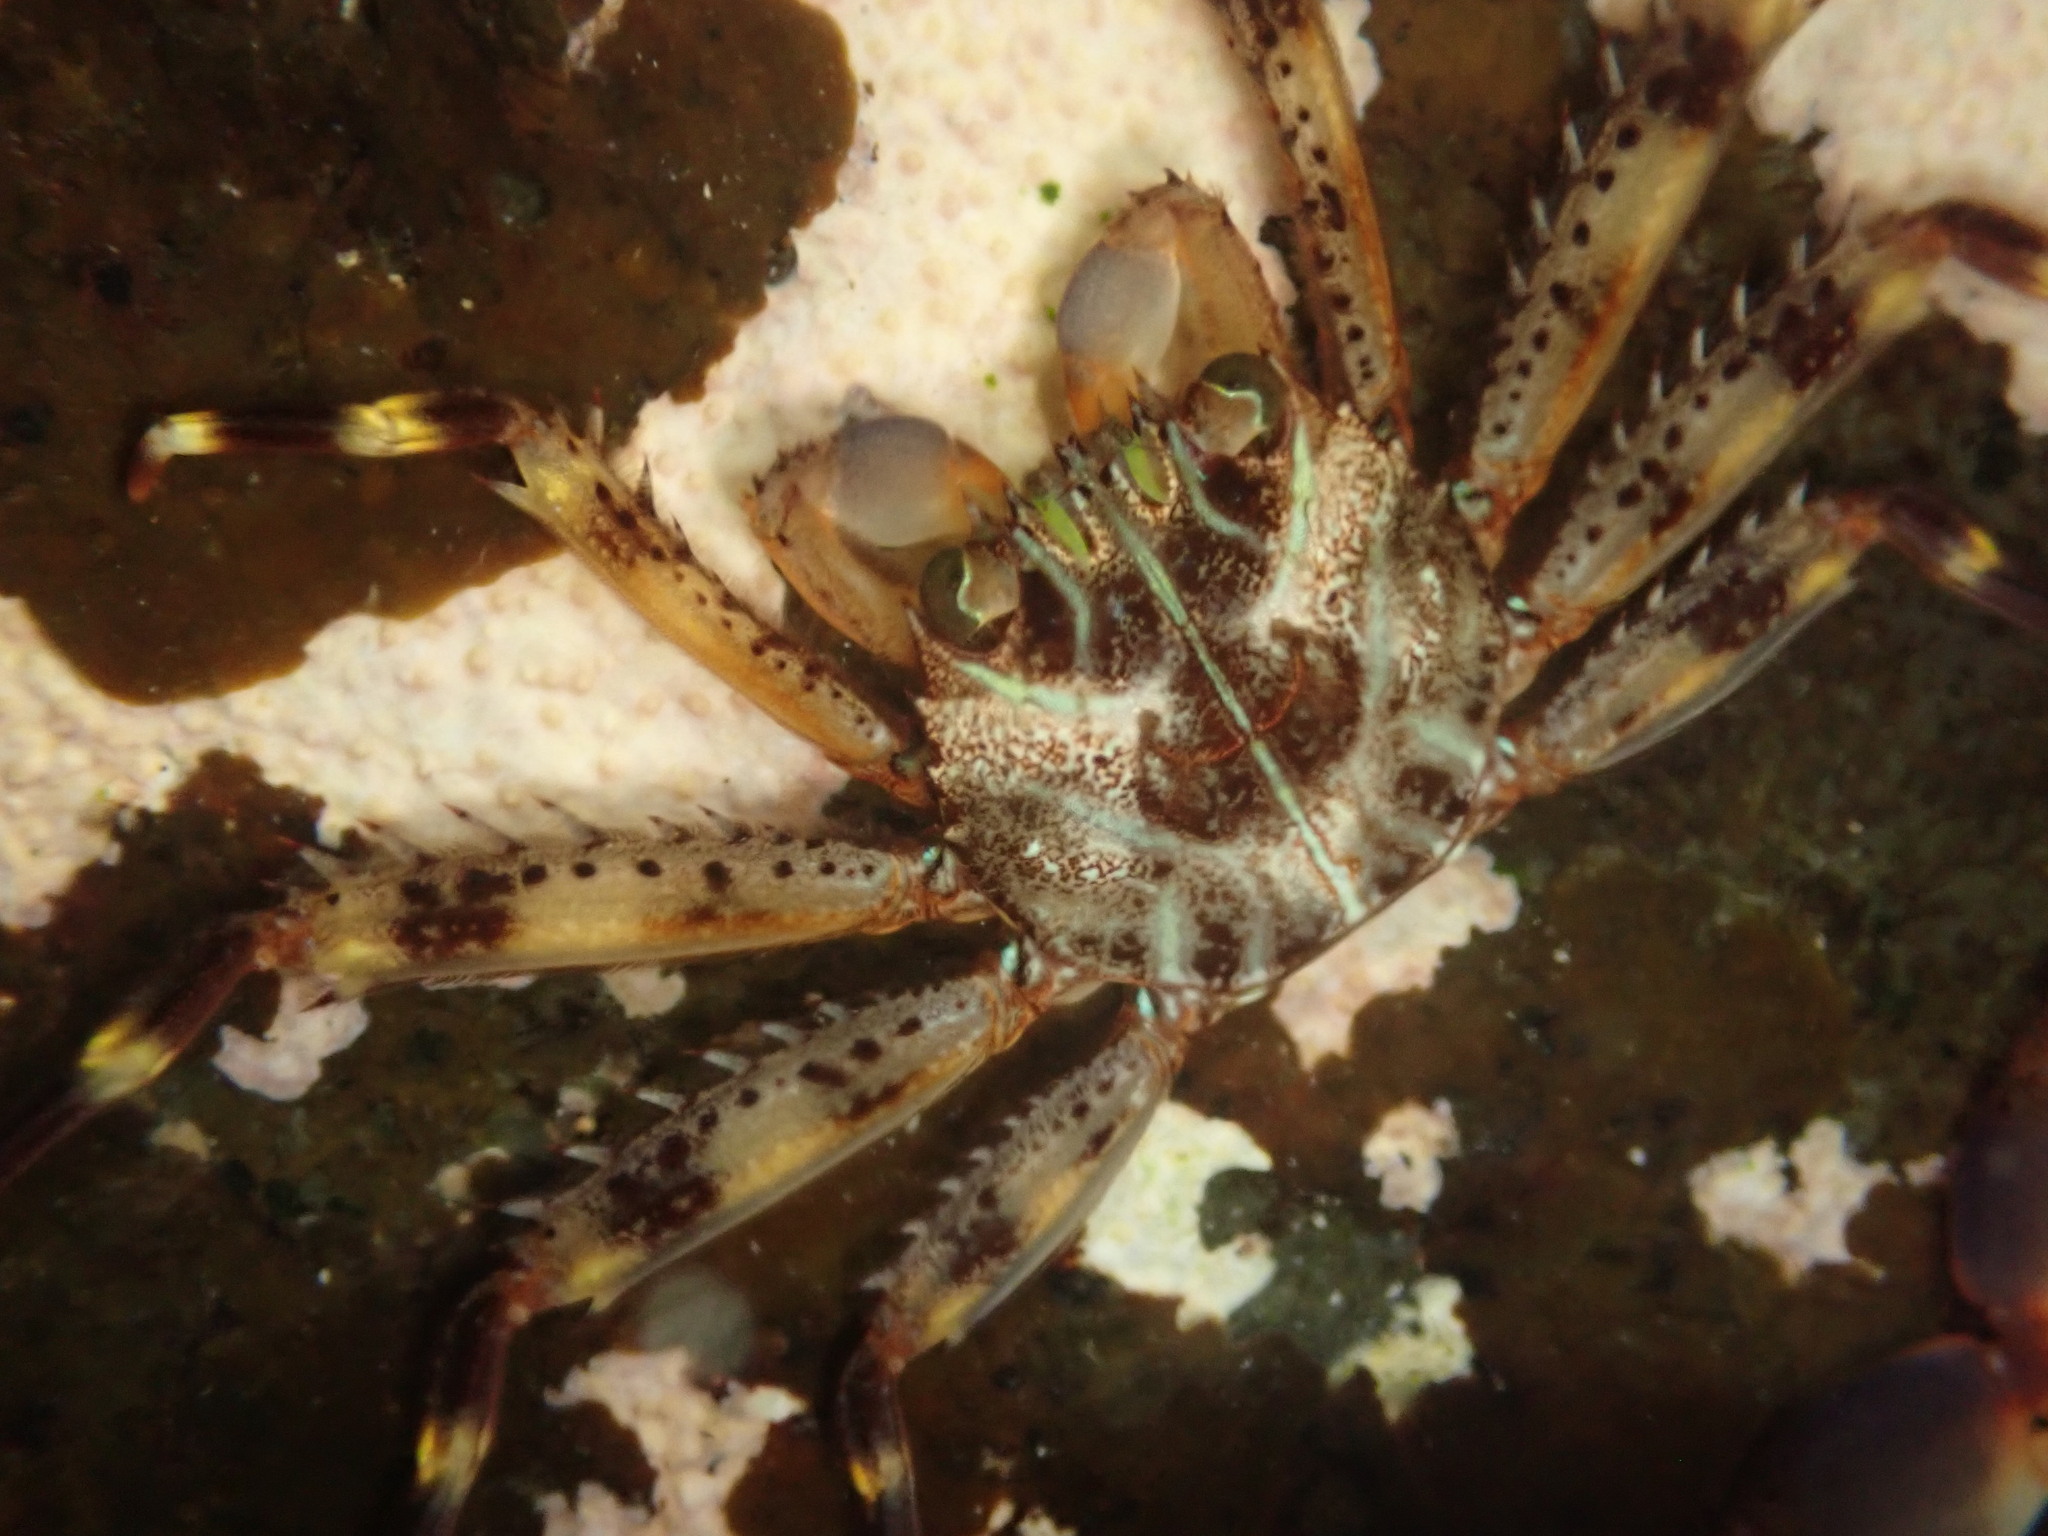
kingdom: Animalia
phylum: Arthropoda
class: Malacostraca
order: Decapoda
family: Percnidae
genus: Percnon
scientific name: Percnon planissimum
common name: Flat rock crab
